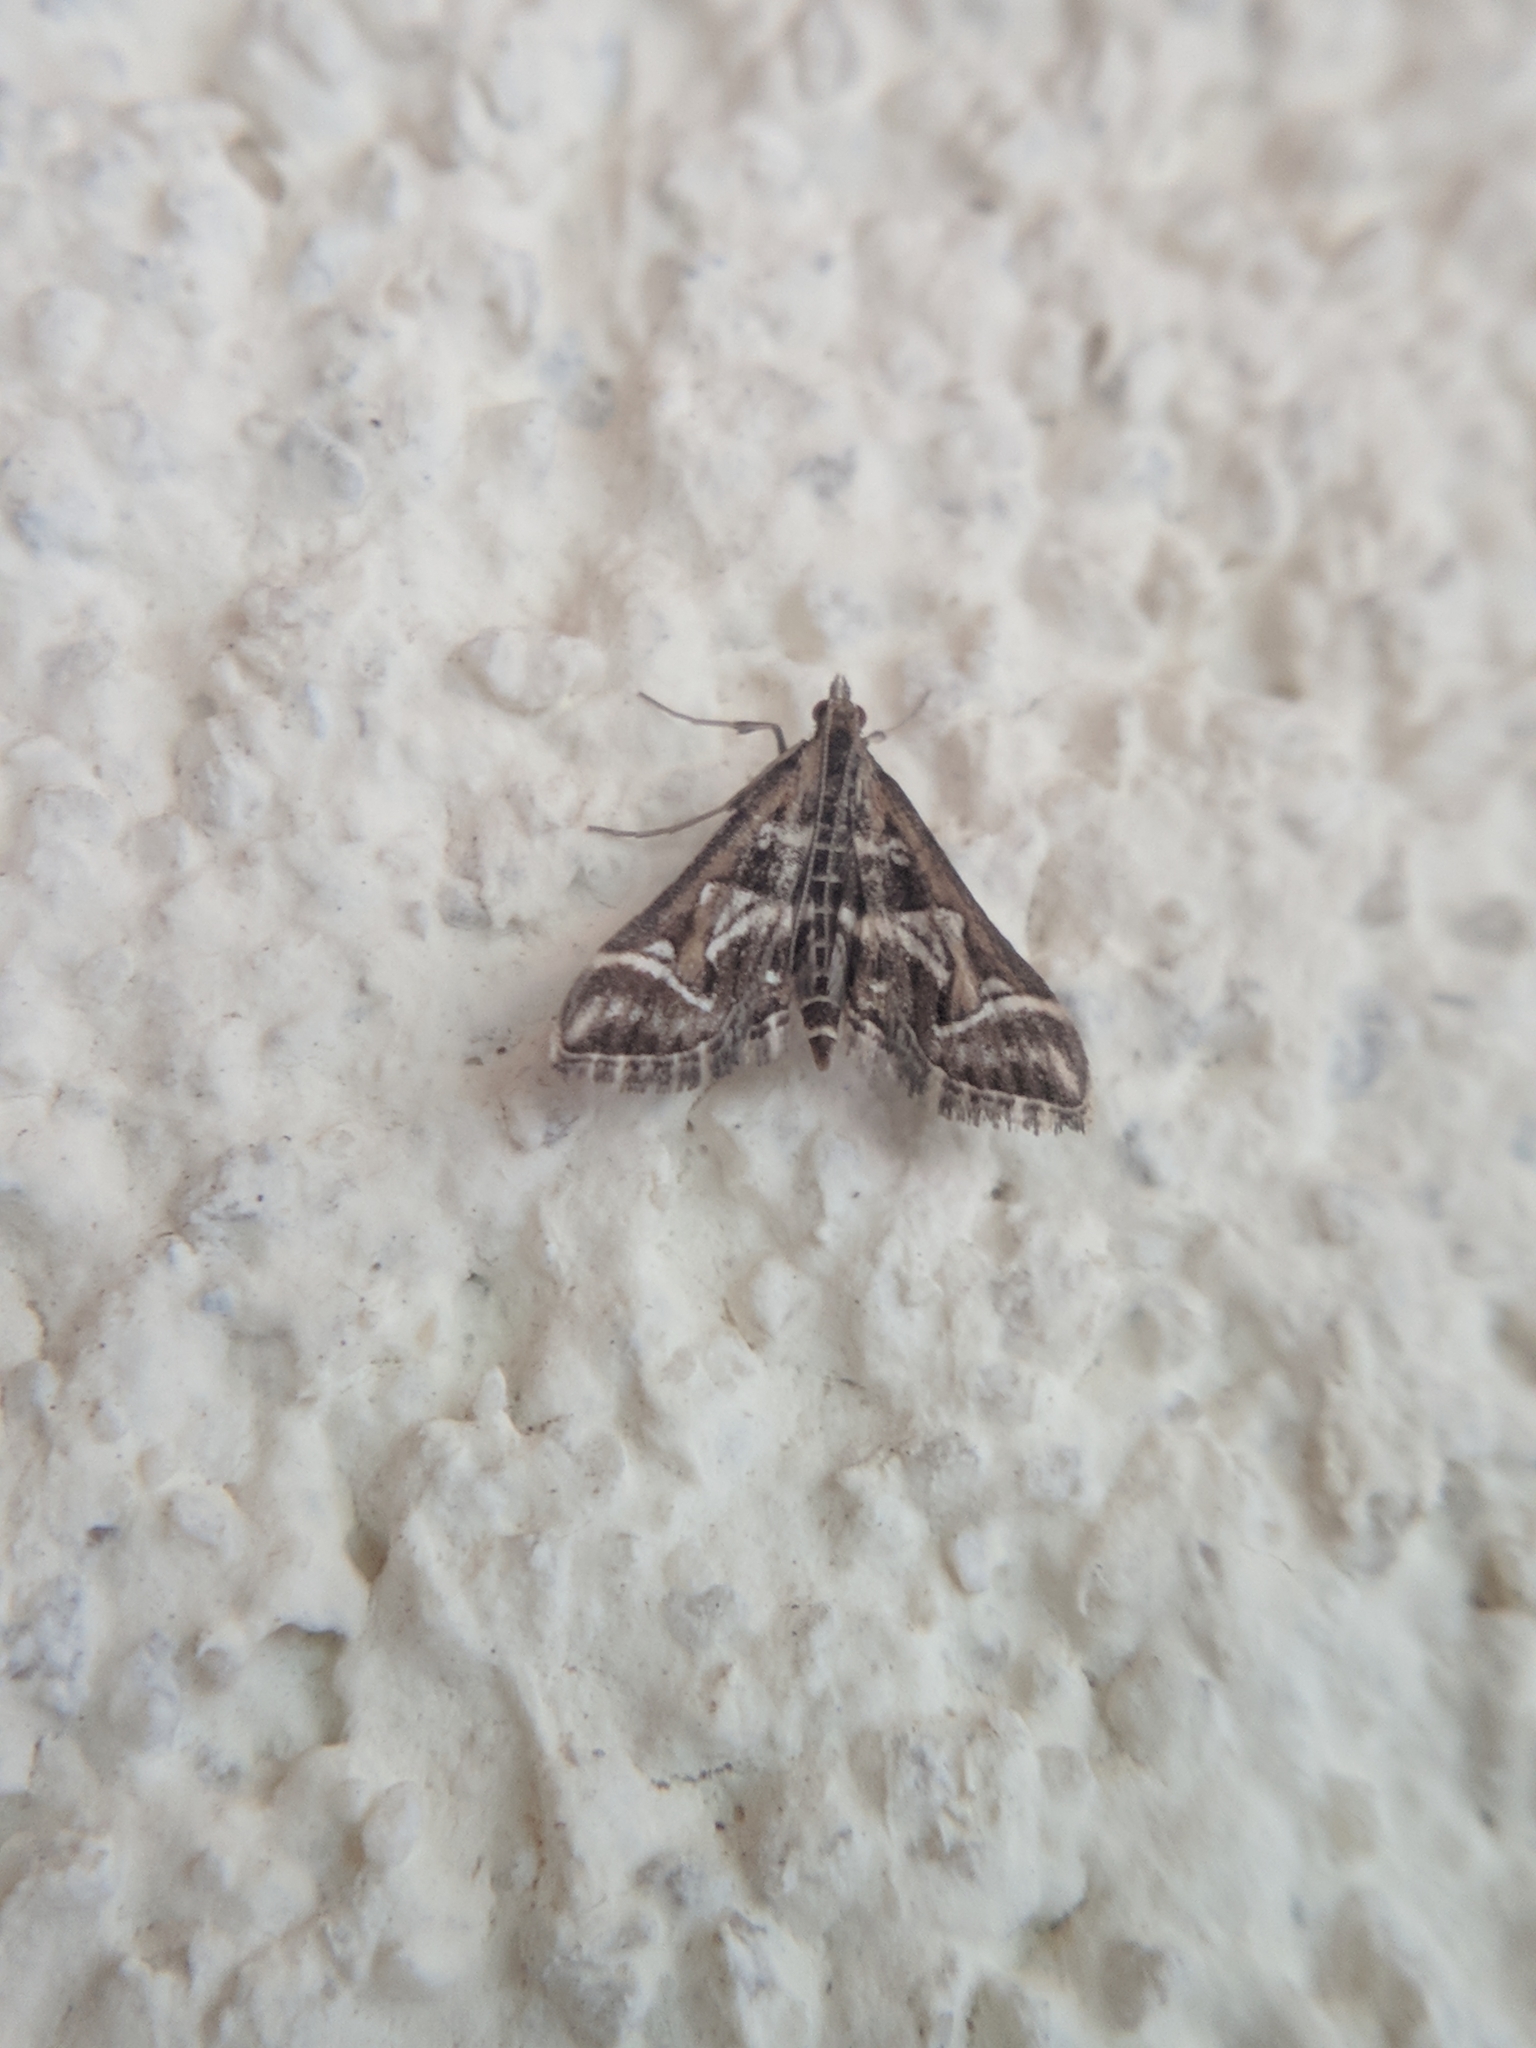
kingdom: Animalia
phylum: Arthropoda
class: Insecta
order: Lepidoptera
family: Crambidae
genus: Diasemia
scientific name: Diasemia reticularis
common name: Lettered china-mark
